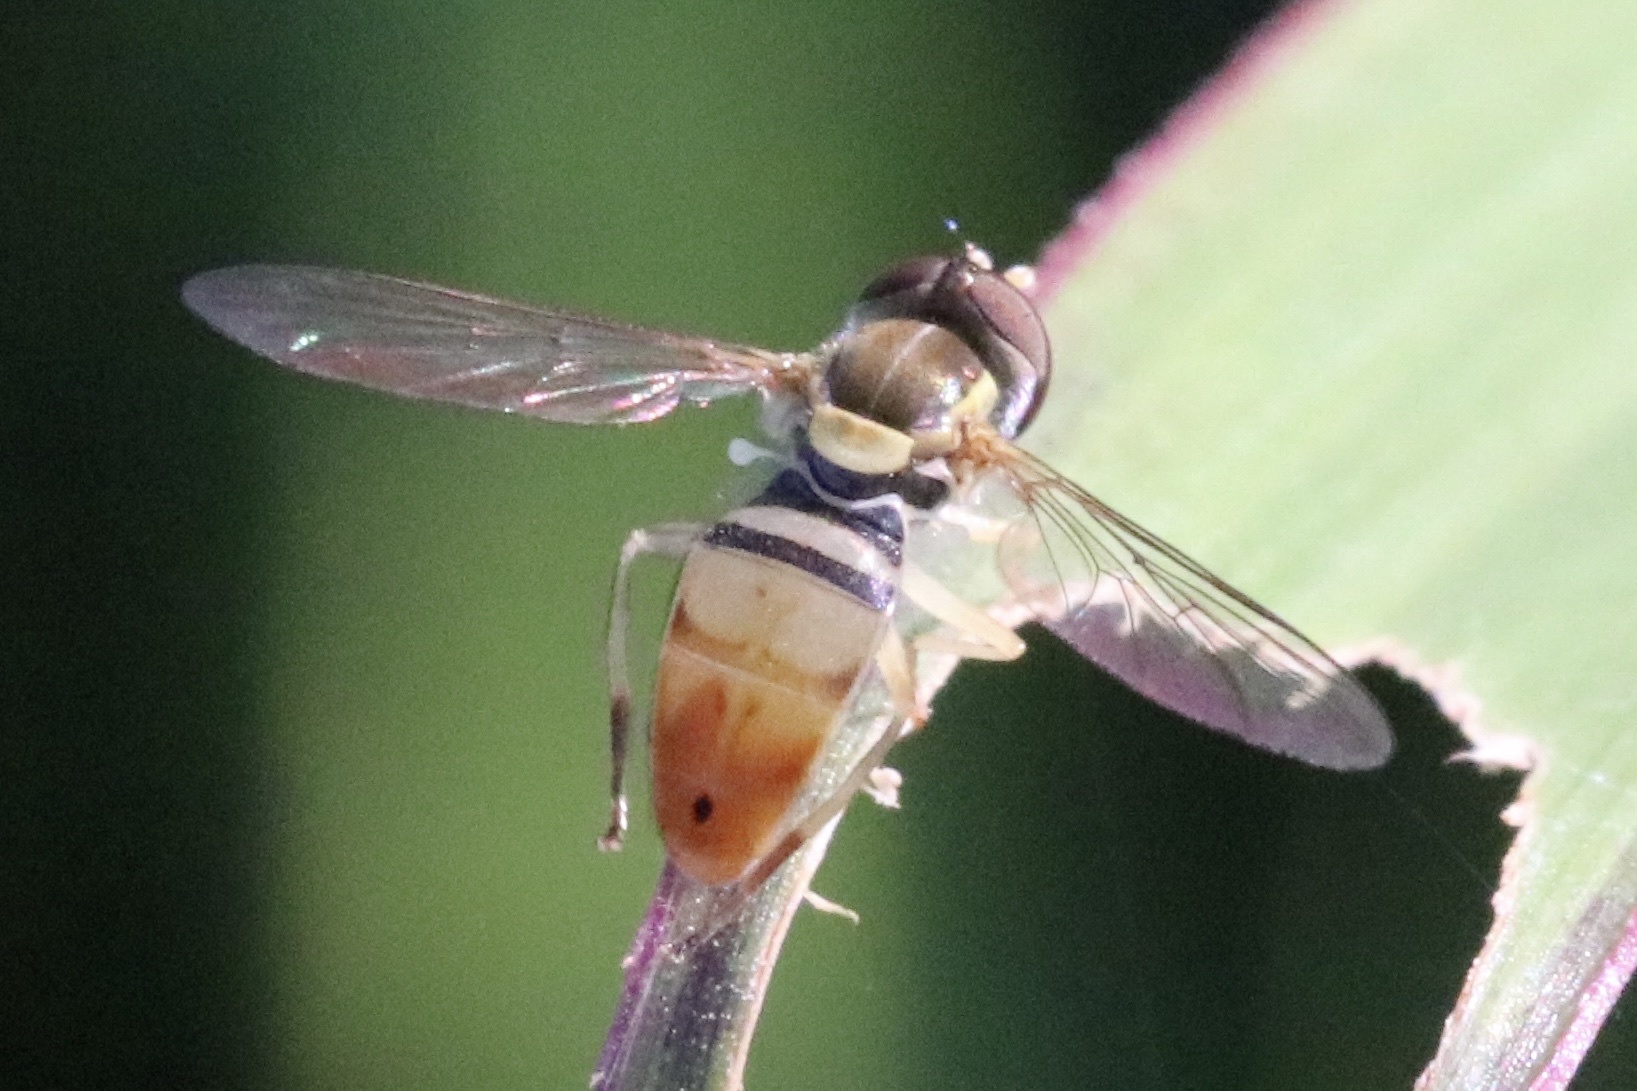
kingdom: Animalia
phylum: Arthropoda
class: Insecta
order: Diptera
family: Syrphidae
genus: Toxomerus
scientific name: Toxomerus marginatus
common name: Syrphid fly
